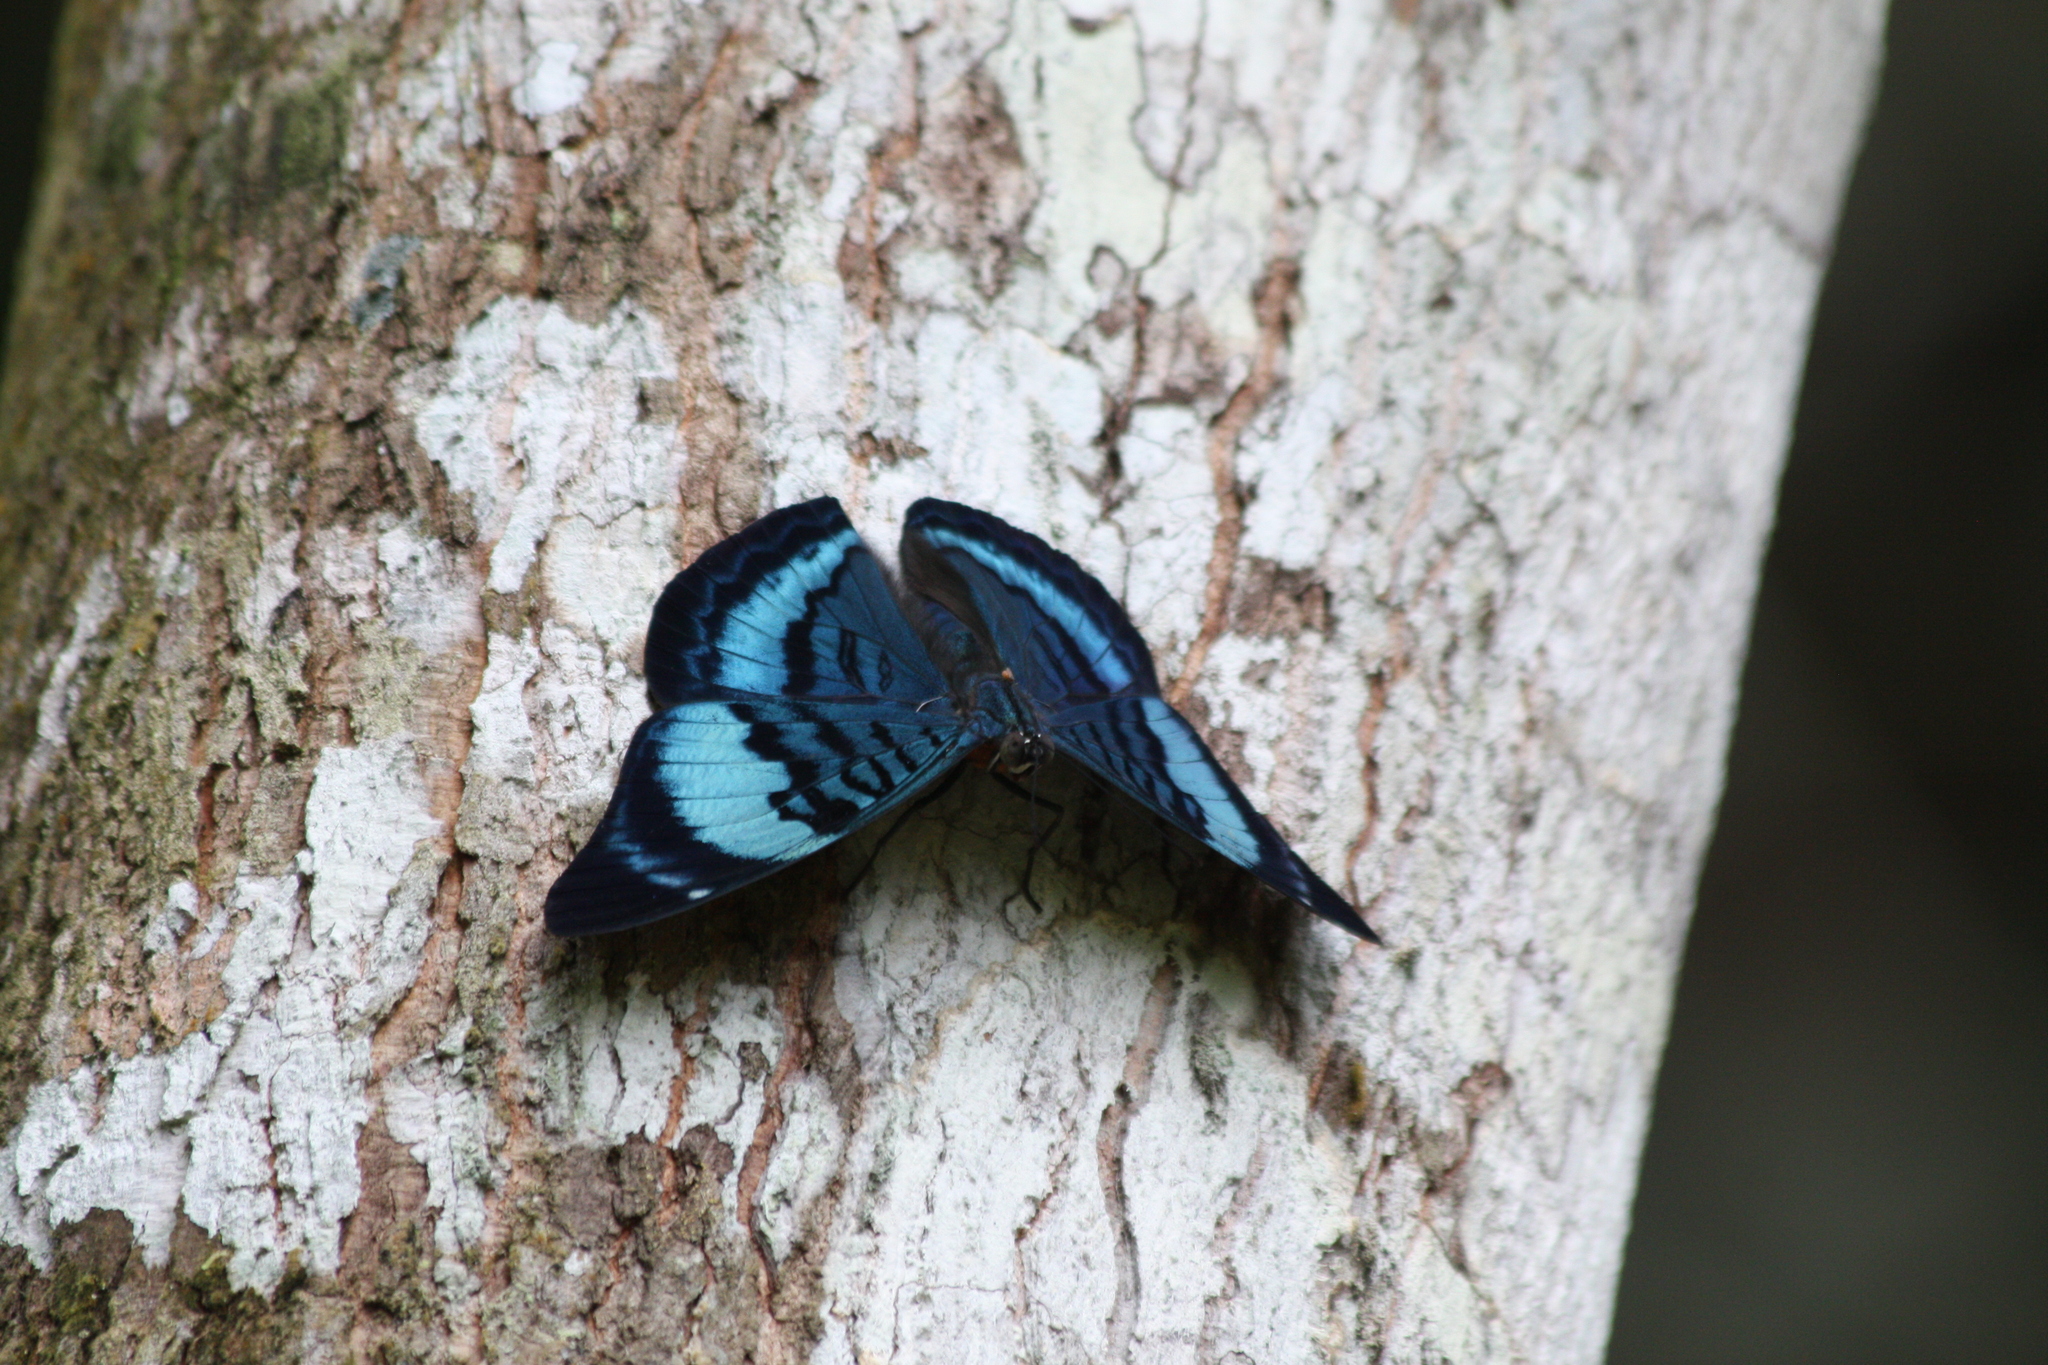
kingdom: Animalia
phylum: Arthropoda
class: Insecta
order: Lepidoptera
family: Nymphalidae
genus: Panacea
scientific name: Panacea procilla
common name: Procilla beauty
